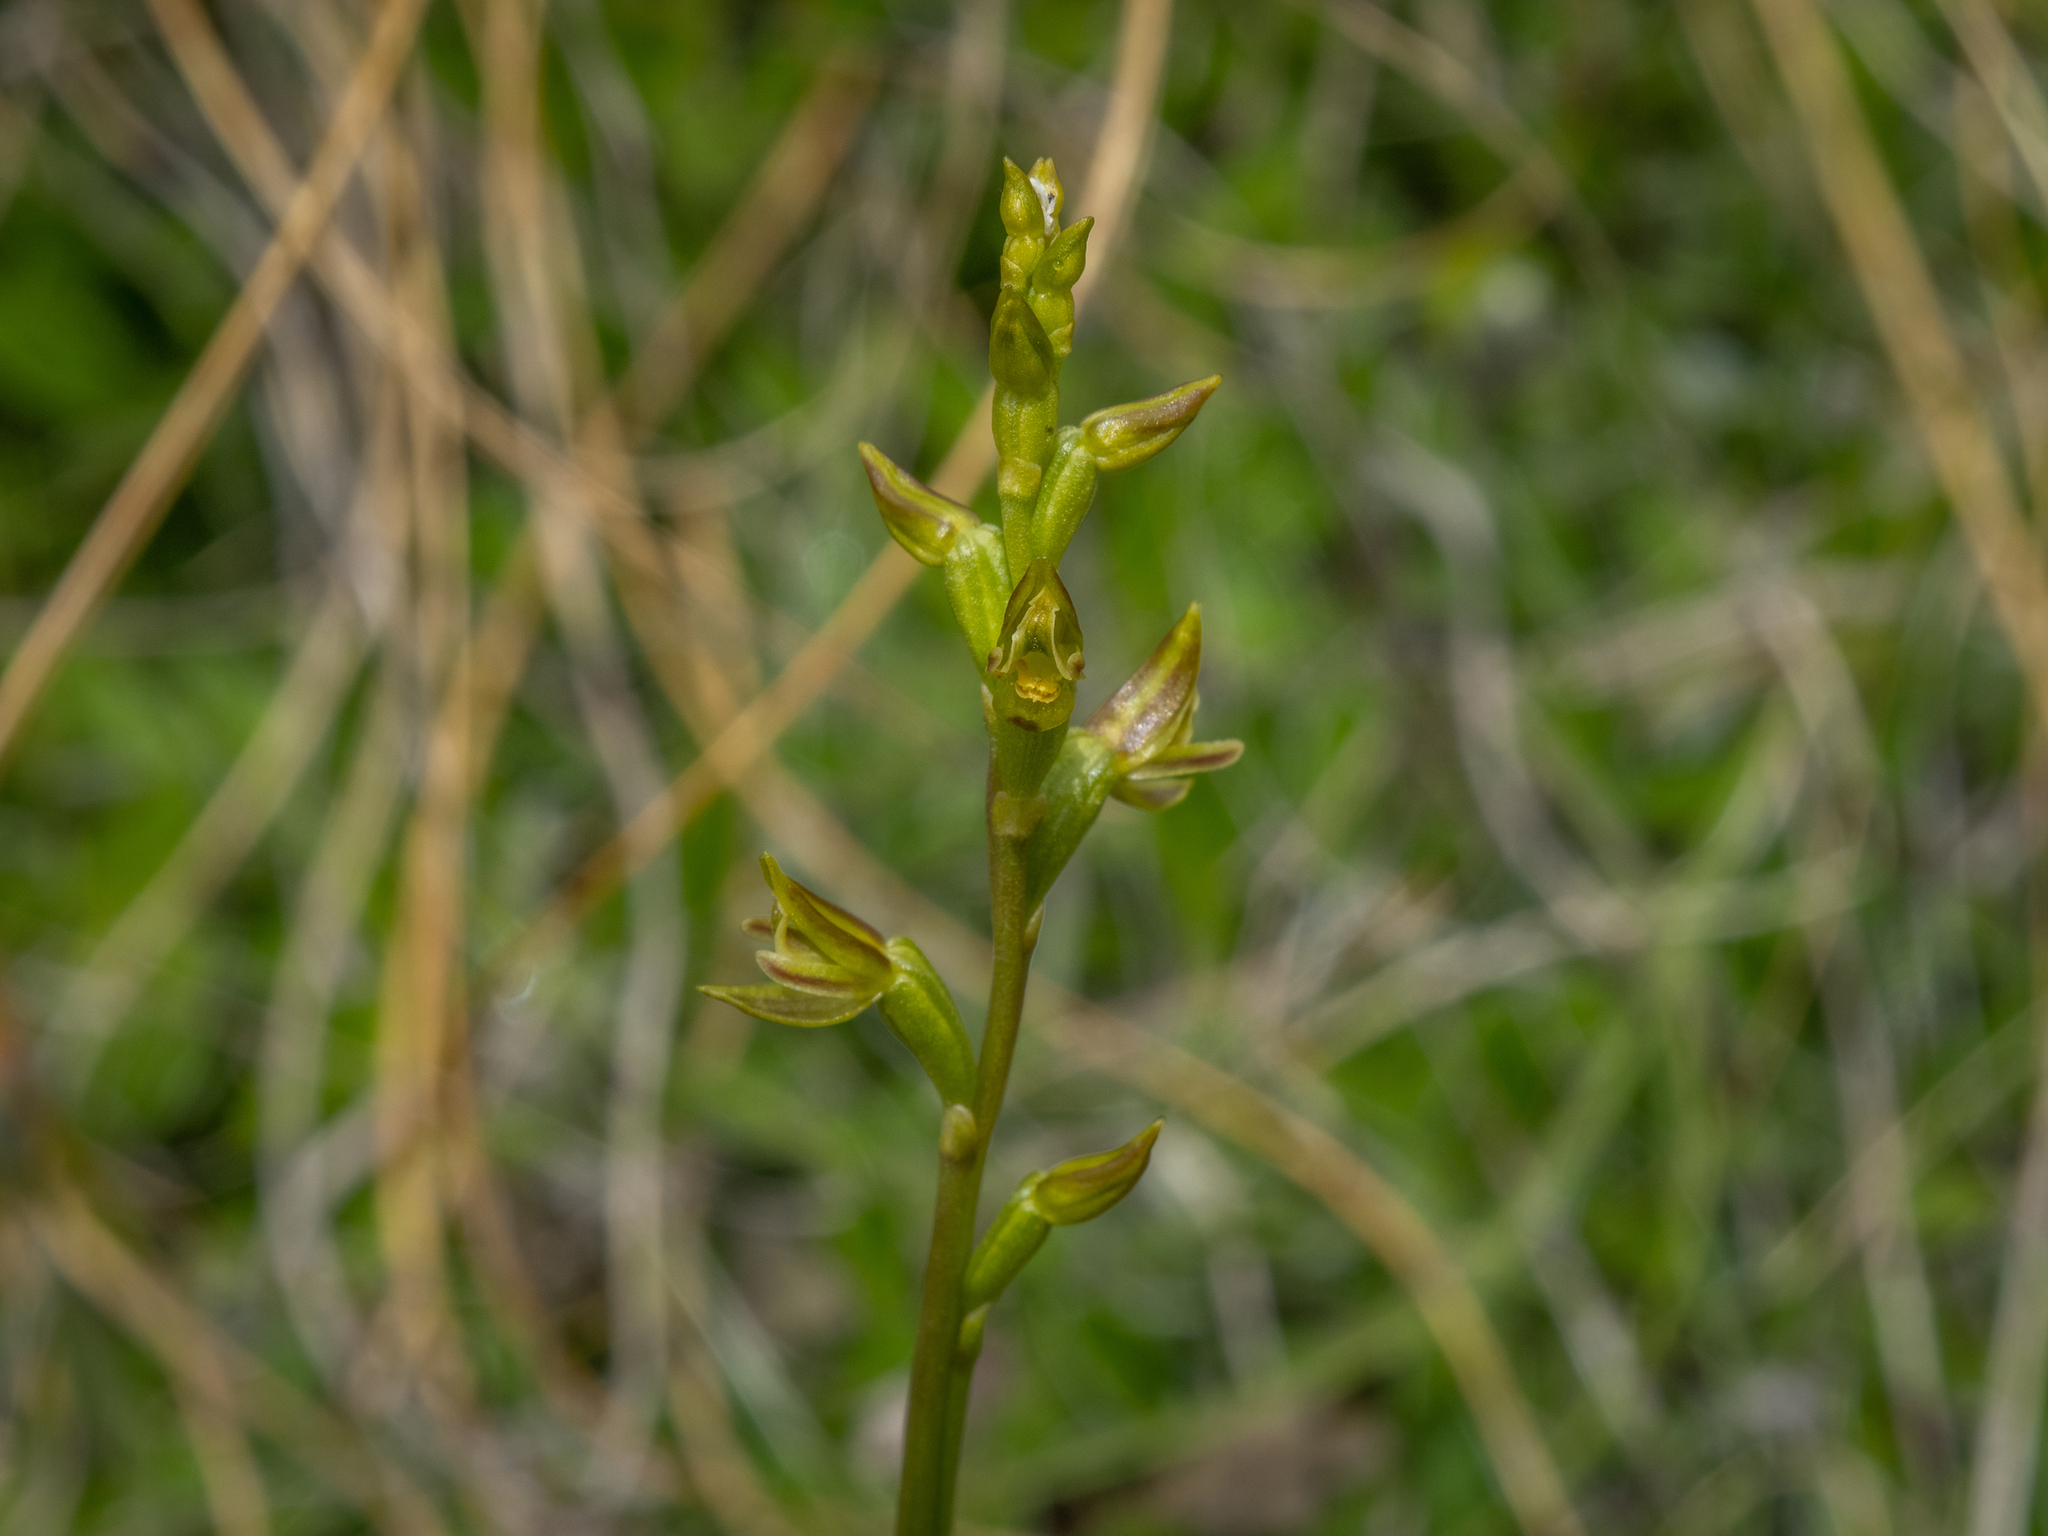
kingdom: Plantae
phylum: Tracheophyta
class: Liliopsida
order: Asparagales
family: Orchidaceae
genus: Prasophyllum
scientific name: Prasophyllum colensoi
